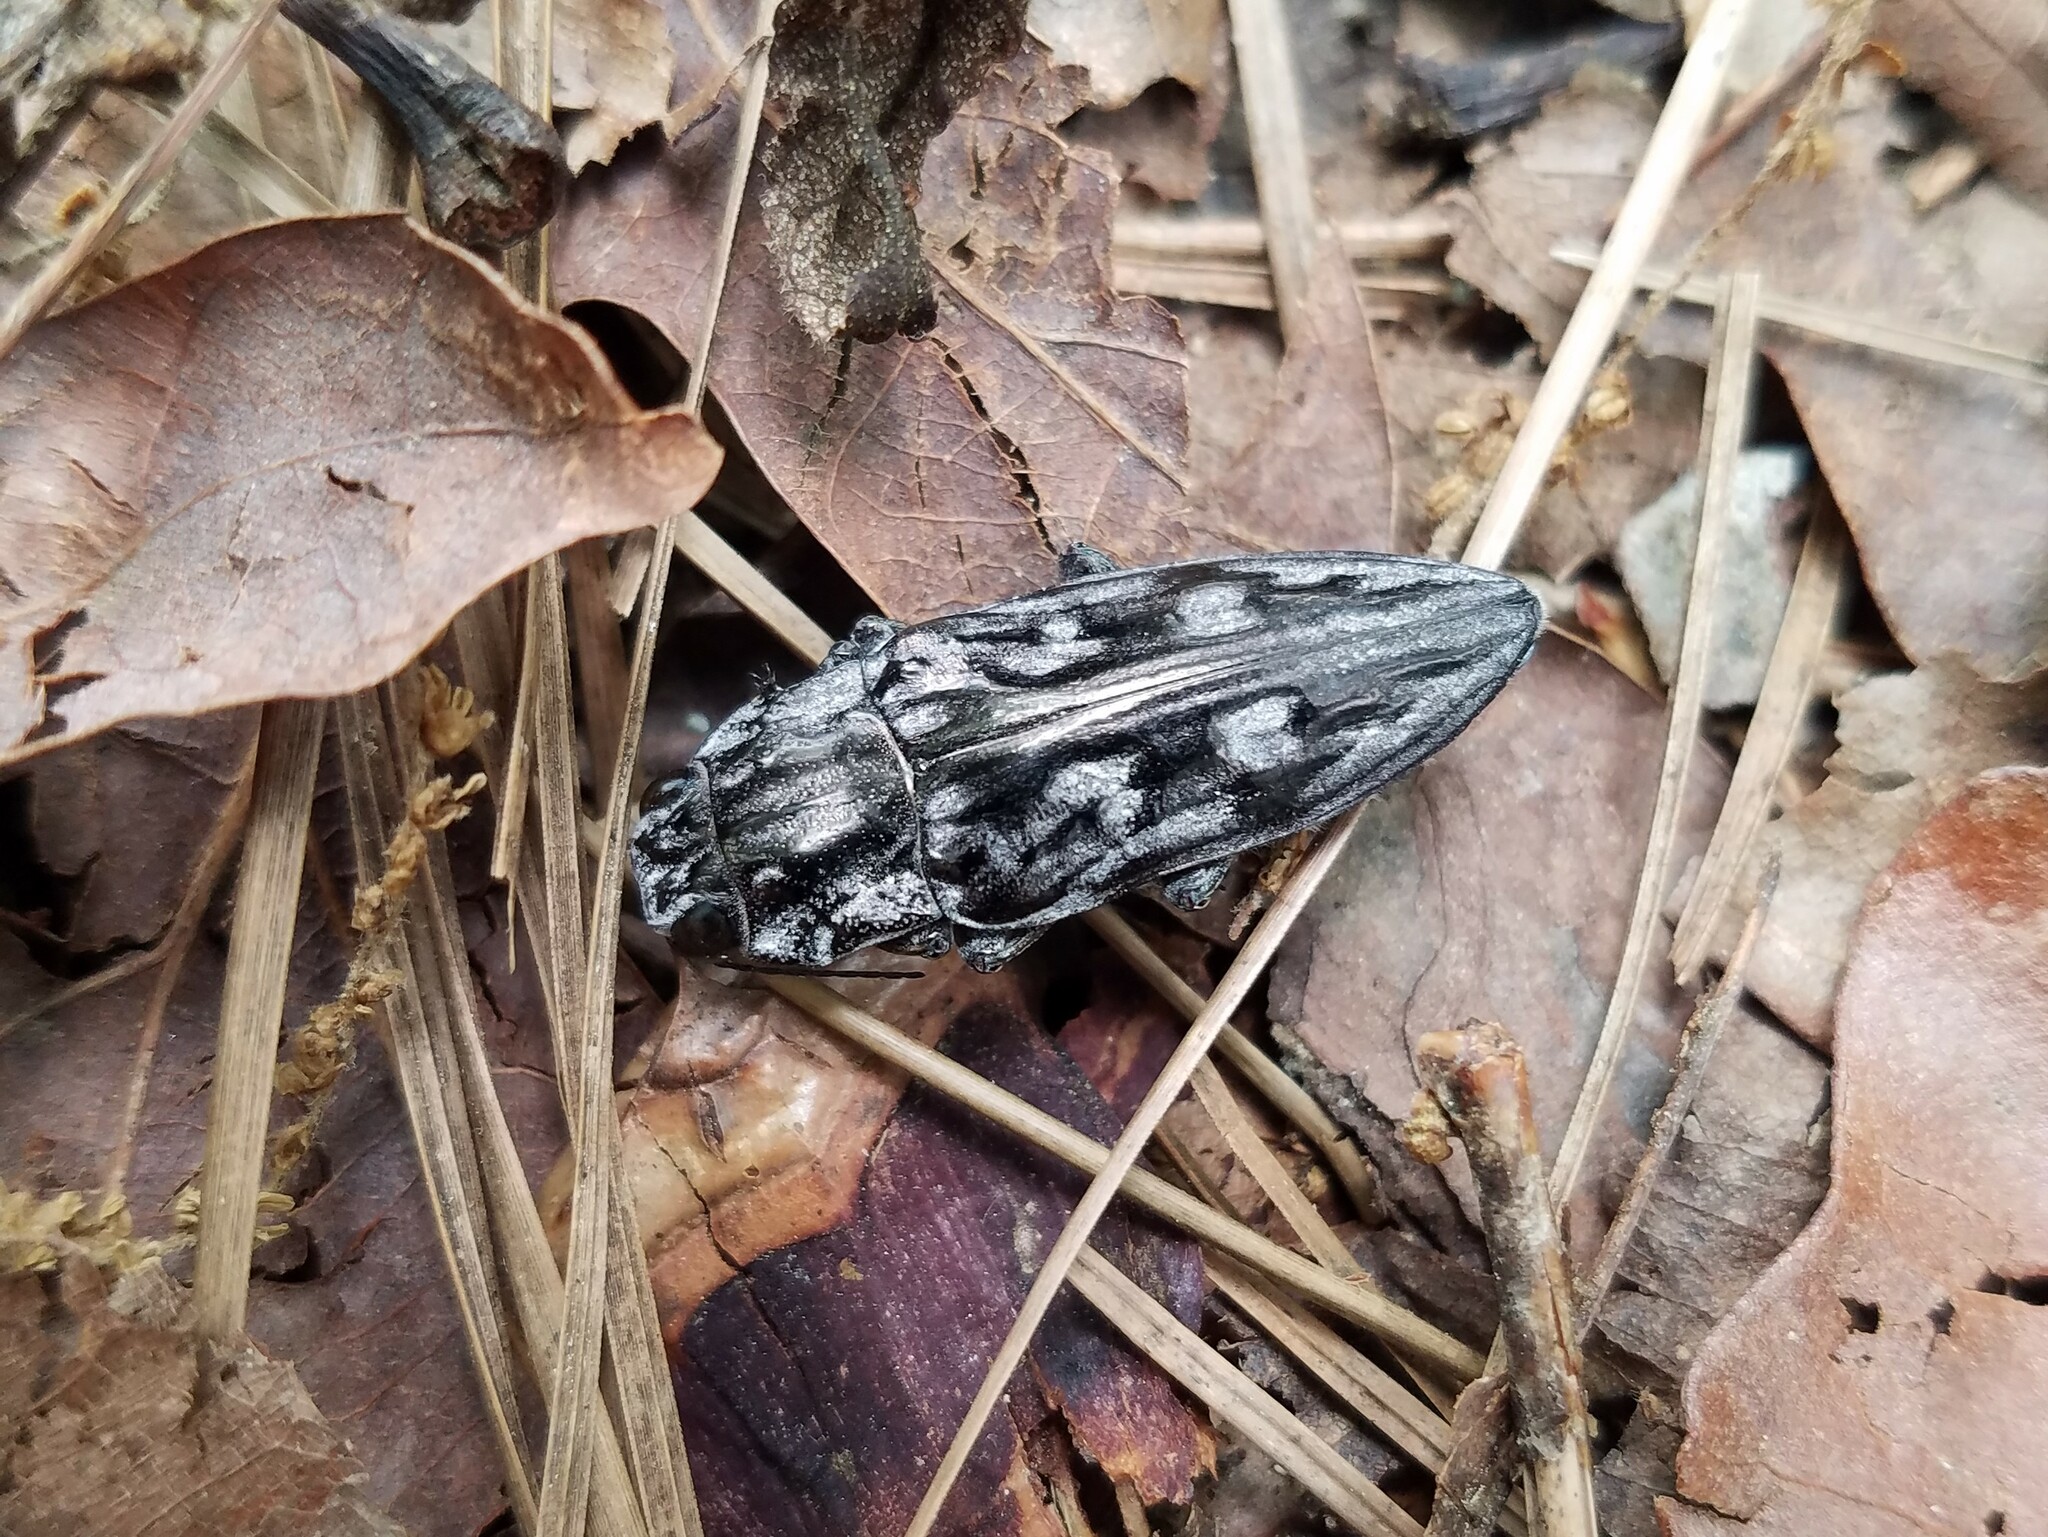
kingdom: Animalia
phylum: Arthropoda
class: Insecta
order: Coleoptera
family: Buprestidae
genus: Chalcophora
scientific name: Chalcophora virginiensis
